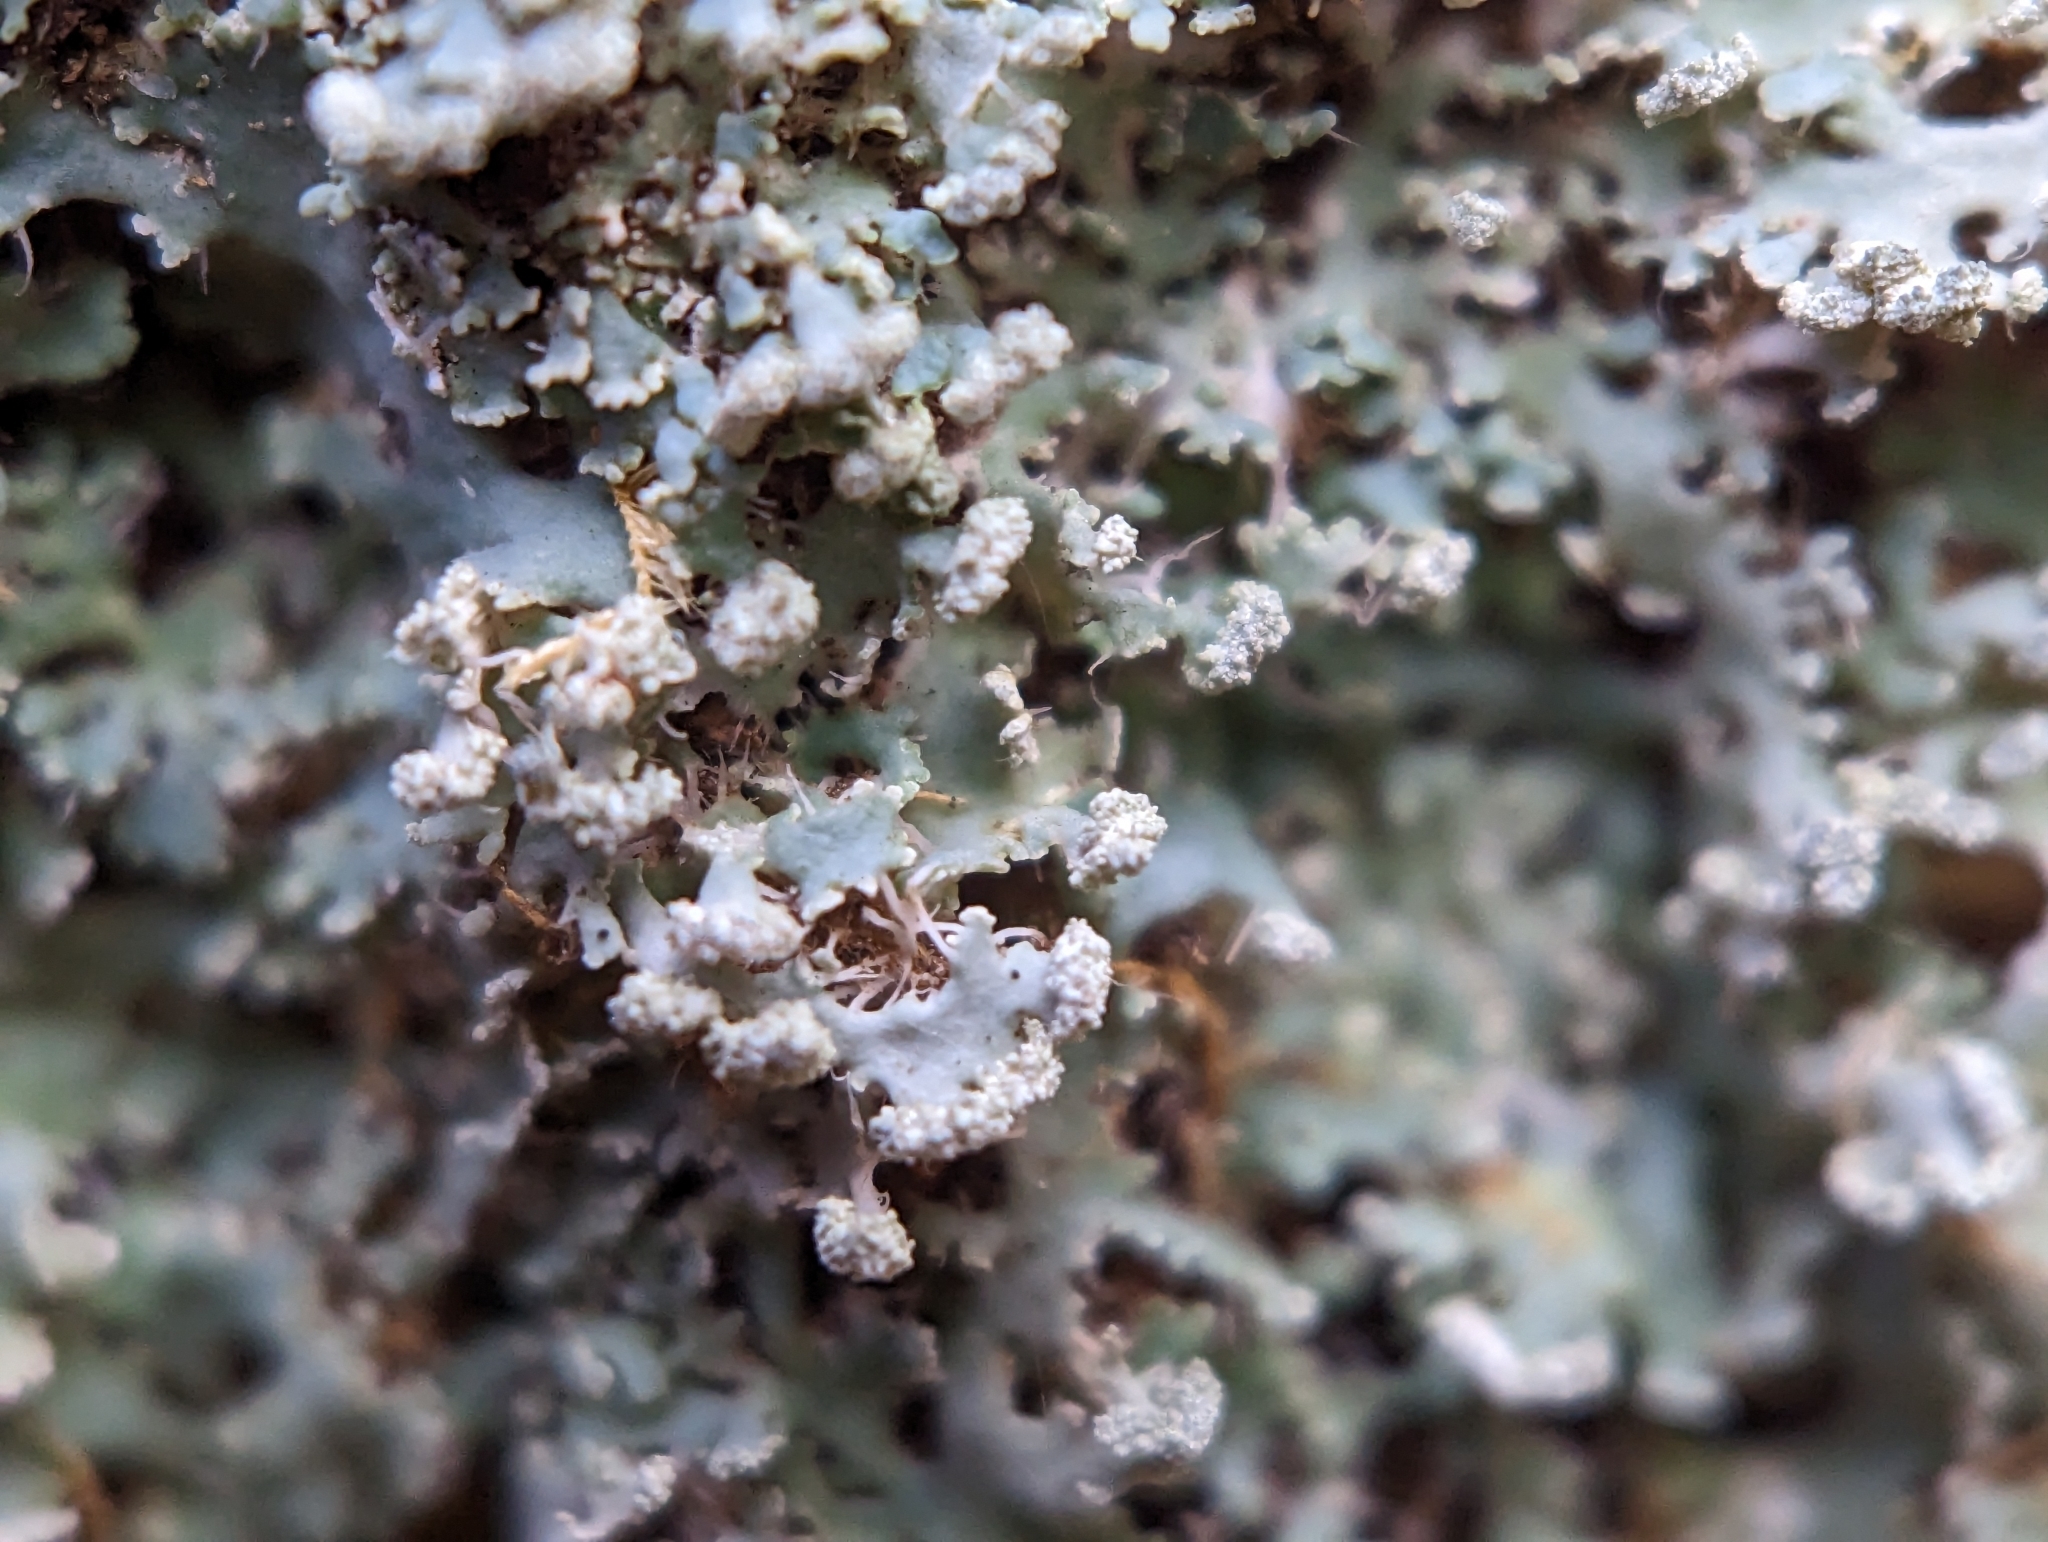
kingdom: Fungi
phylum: Ascomycota
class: Lecanoromycetes
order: Caliciales
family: Physciaceae
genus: Heterodermia
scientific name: Heterodermia speciosa
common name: Powdered fringe lichen
